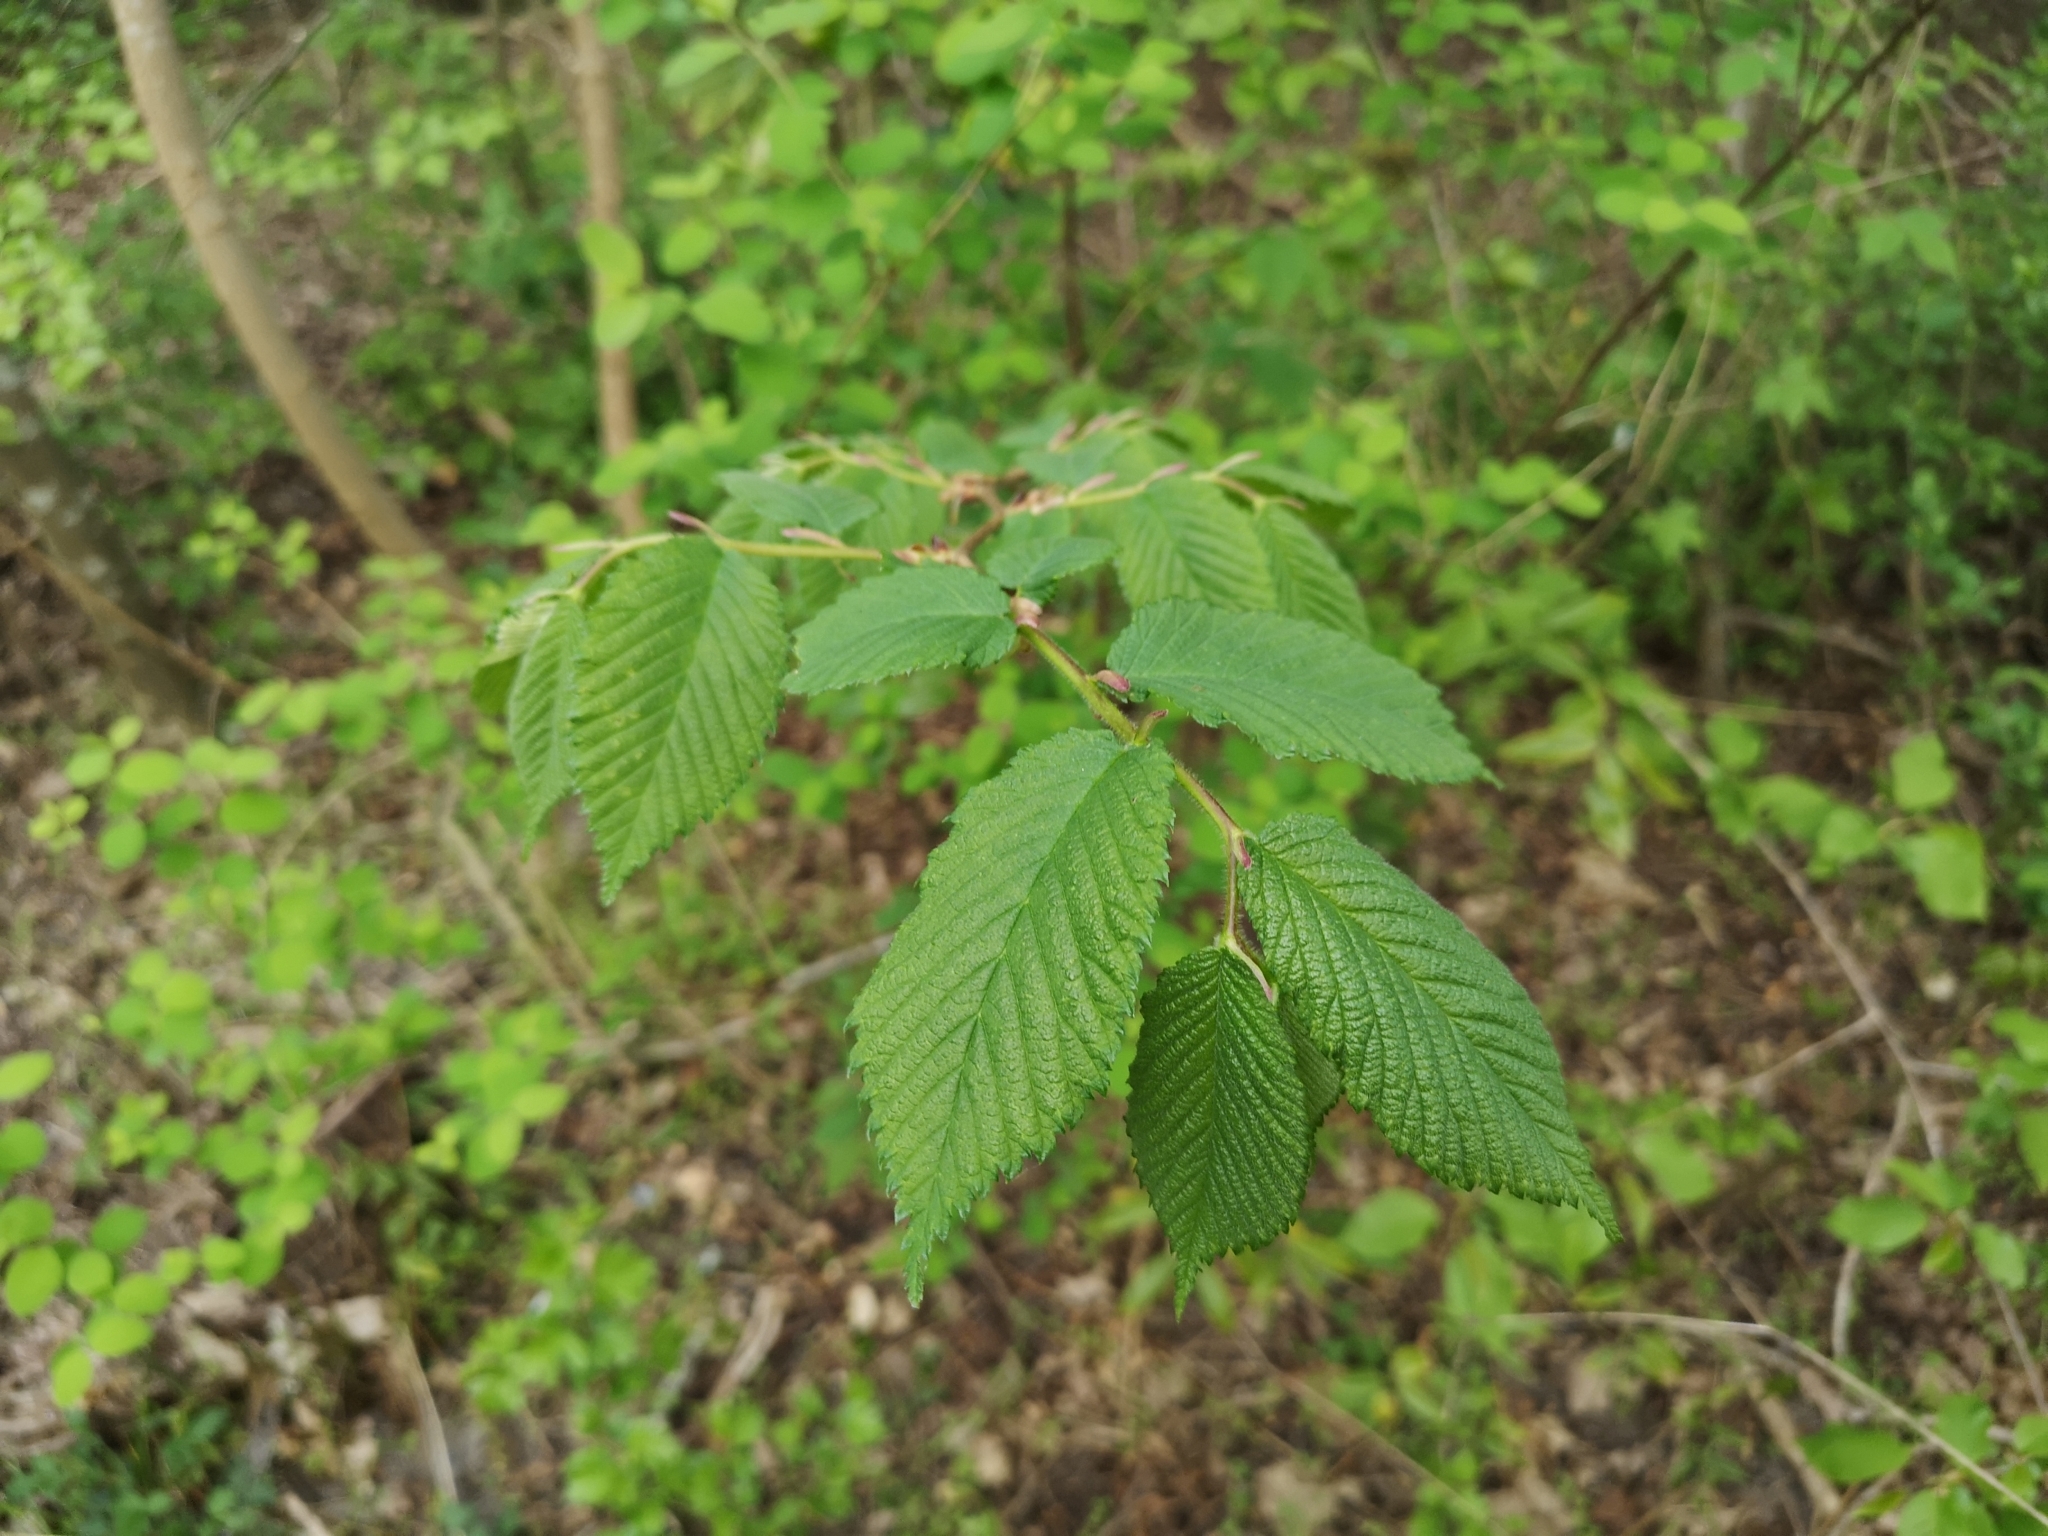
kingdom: Plantae
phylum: Tracheophyta
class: Magnoliopsida
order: Rosales
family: Ulmaceae
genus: Ulmus
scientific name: Ulmus glabra
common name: Wych elm
